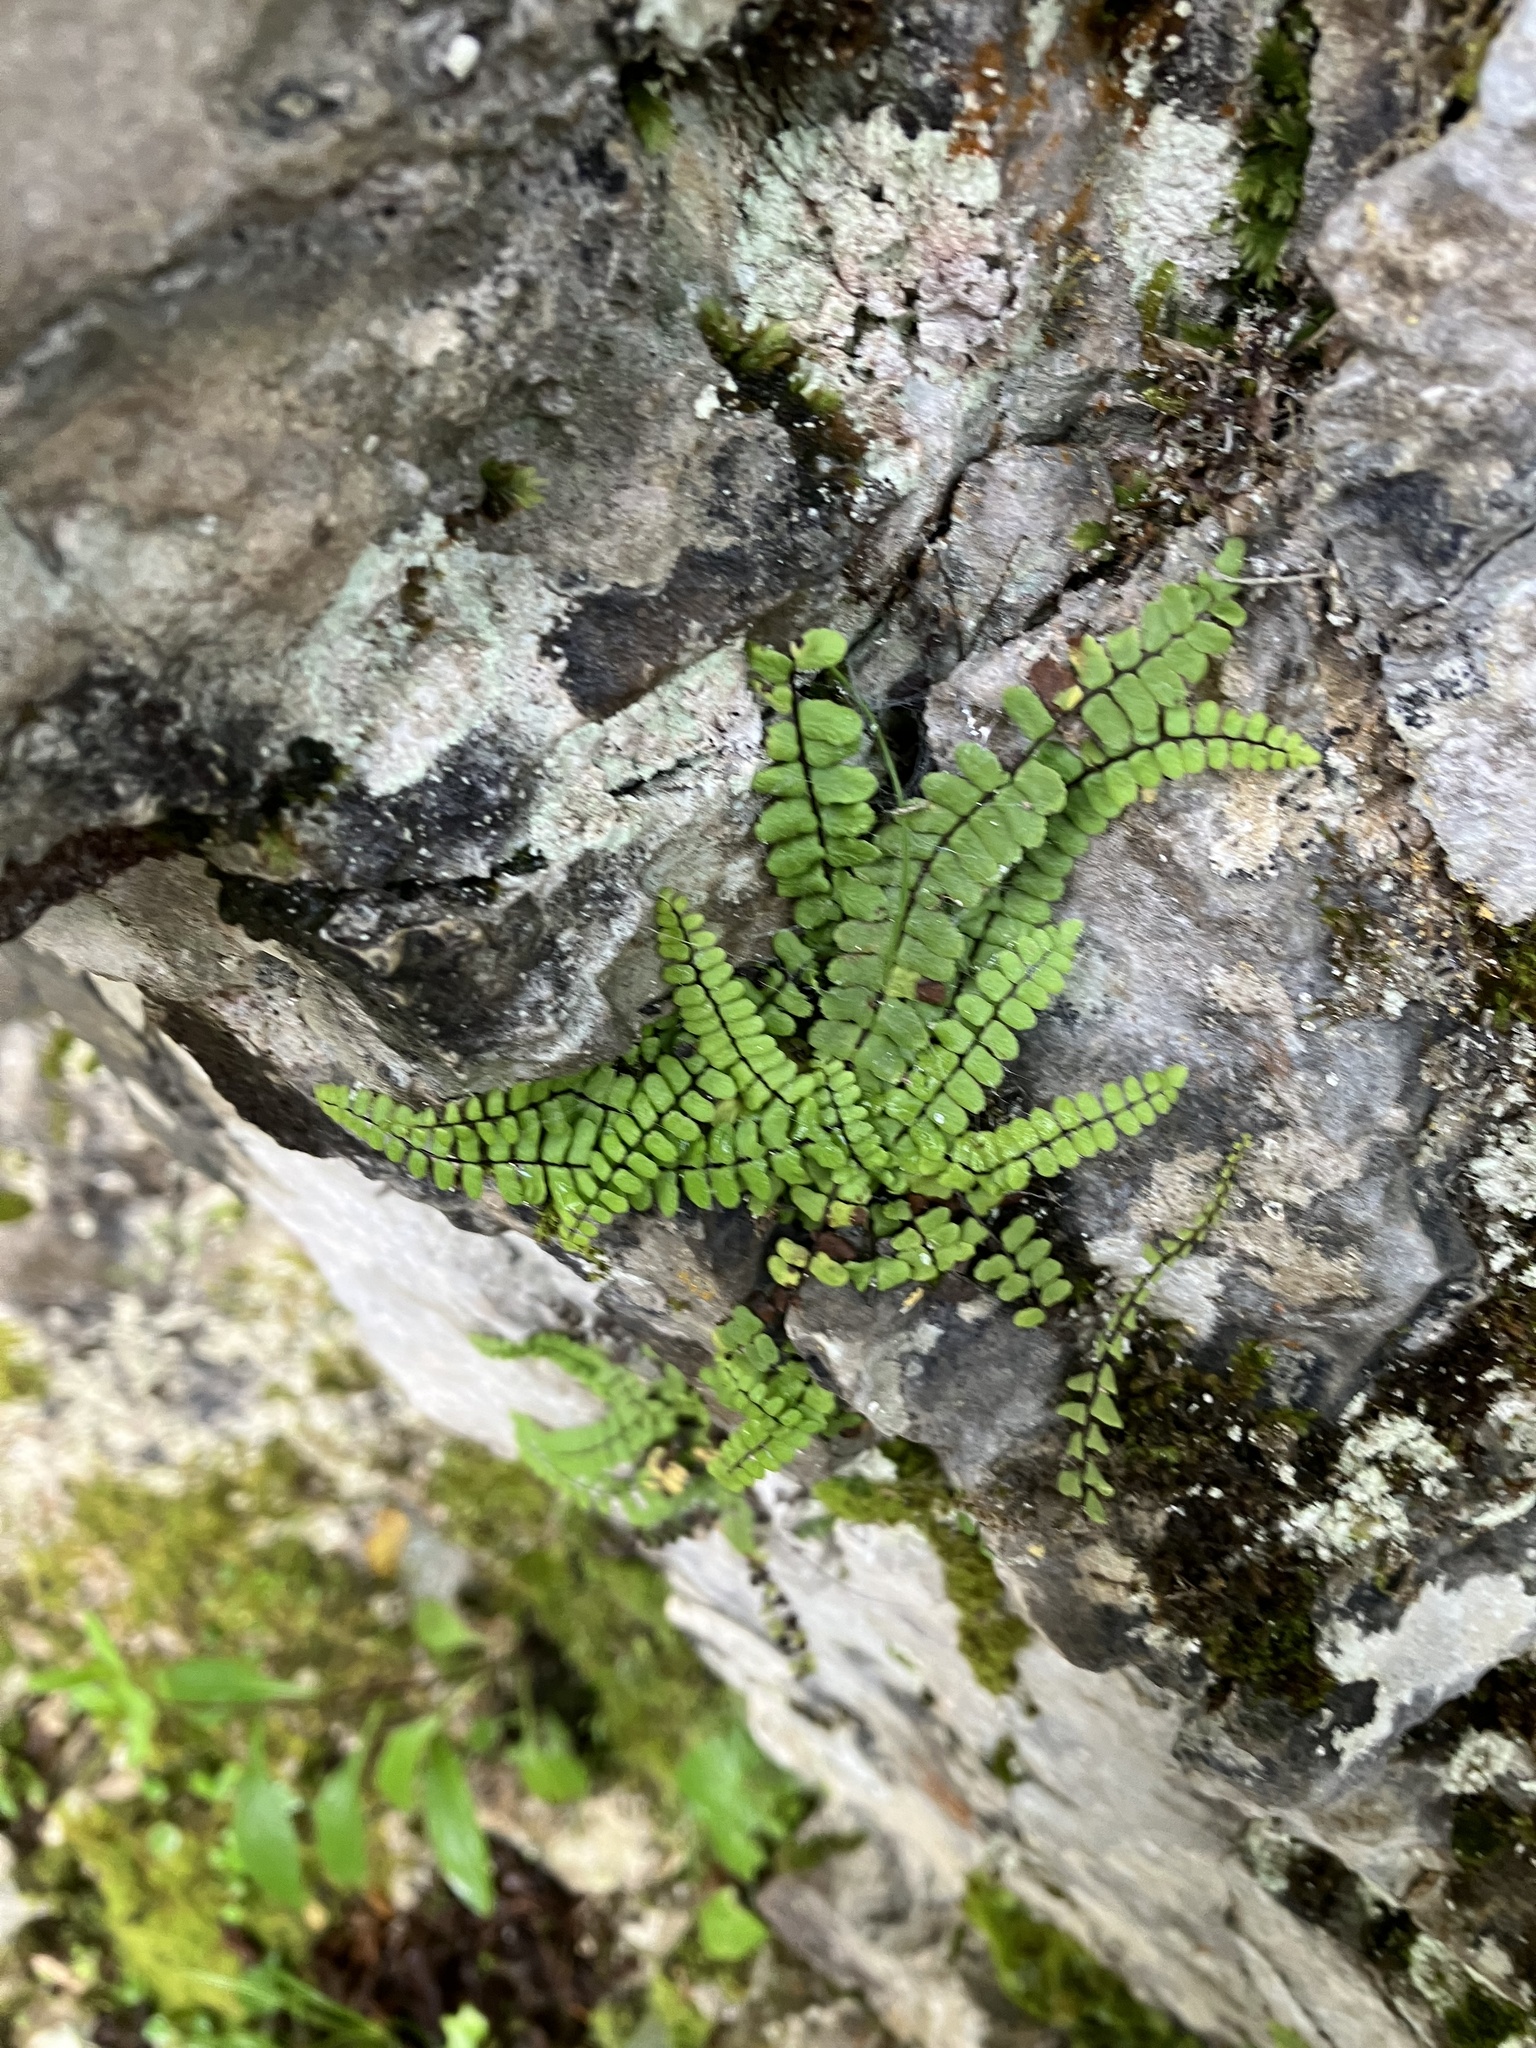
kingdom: Plantae
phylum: Tracheophyta
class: Polypodiopsida
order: Polypodiales
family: Aspleniaceae
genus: Asplenium
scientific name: Asplenium trichomanes
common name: Maidenhair spleenwort
